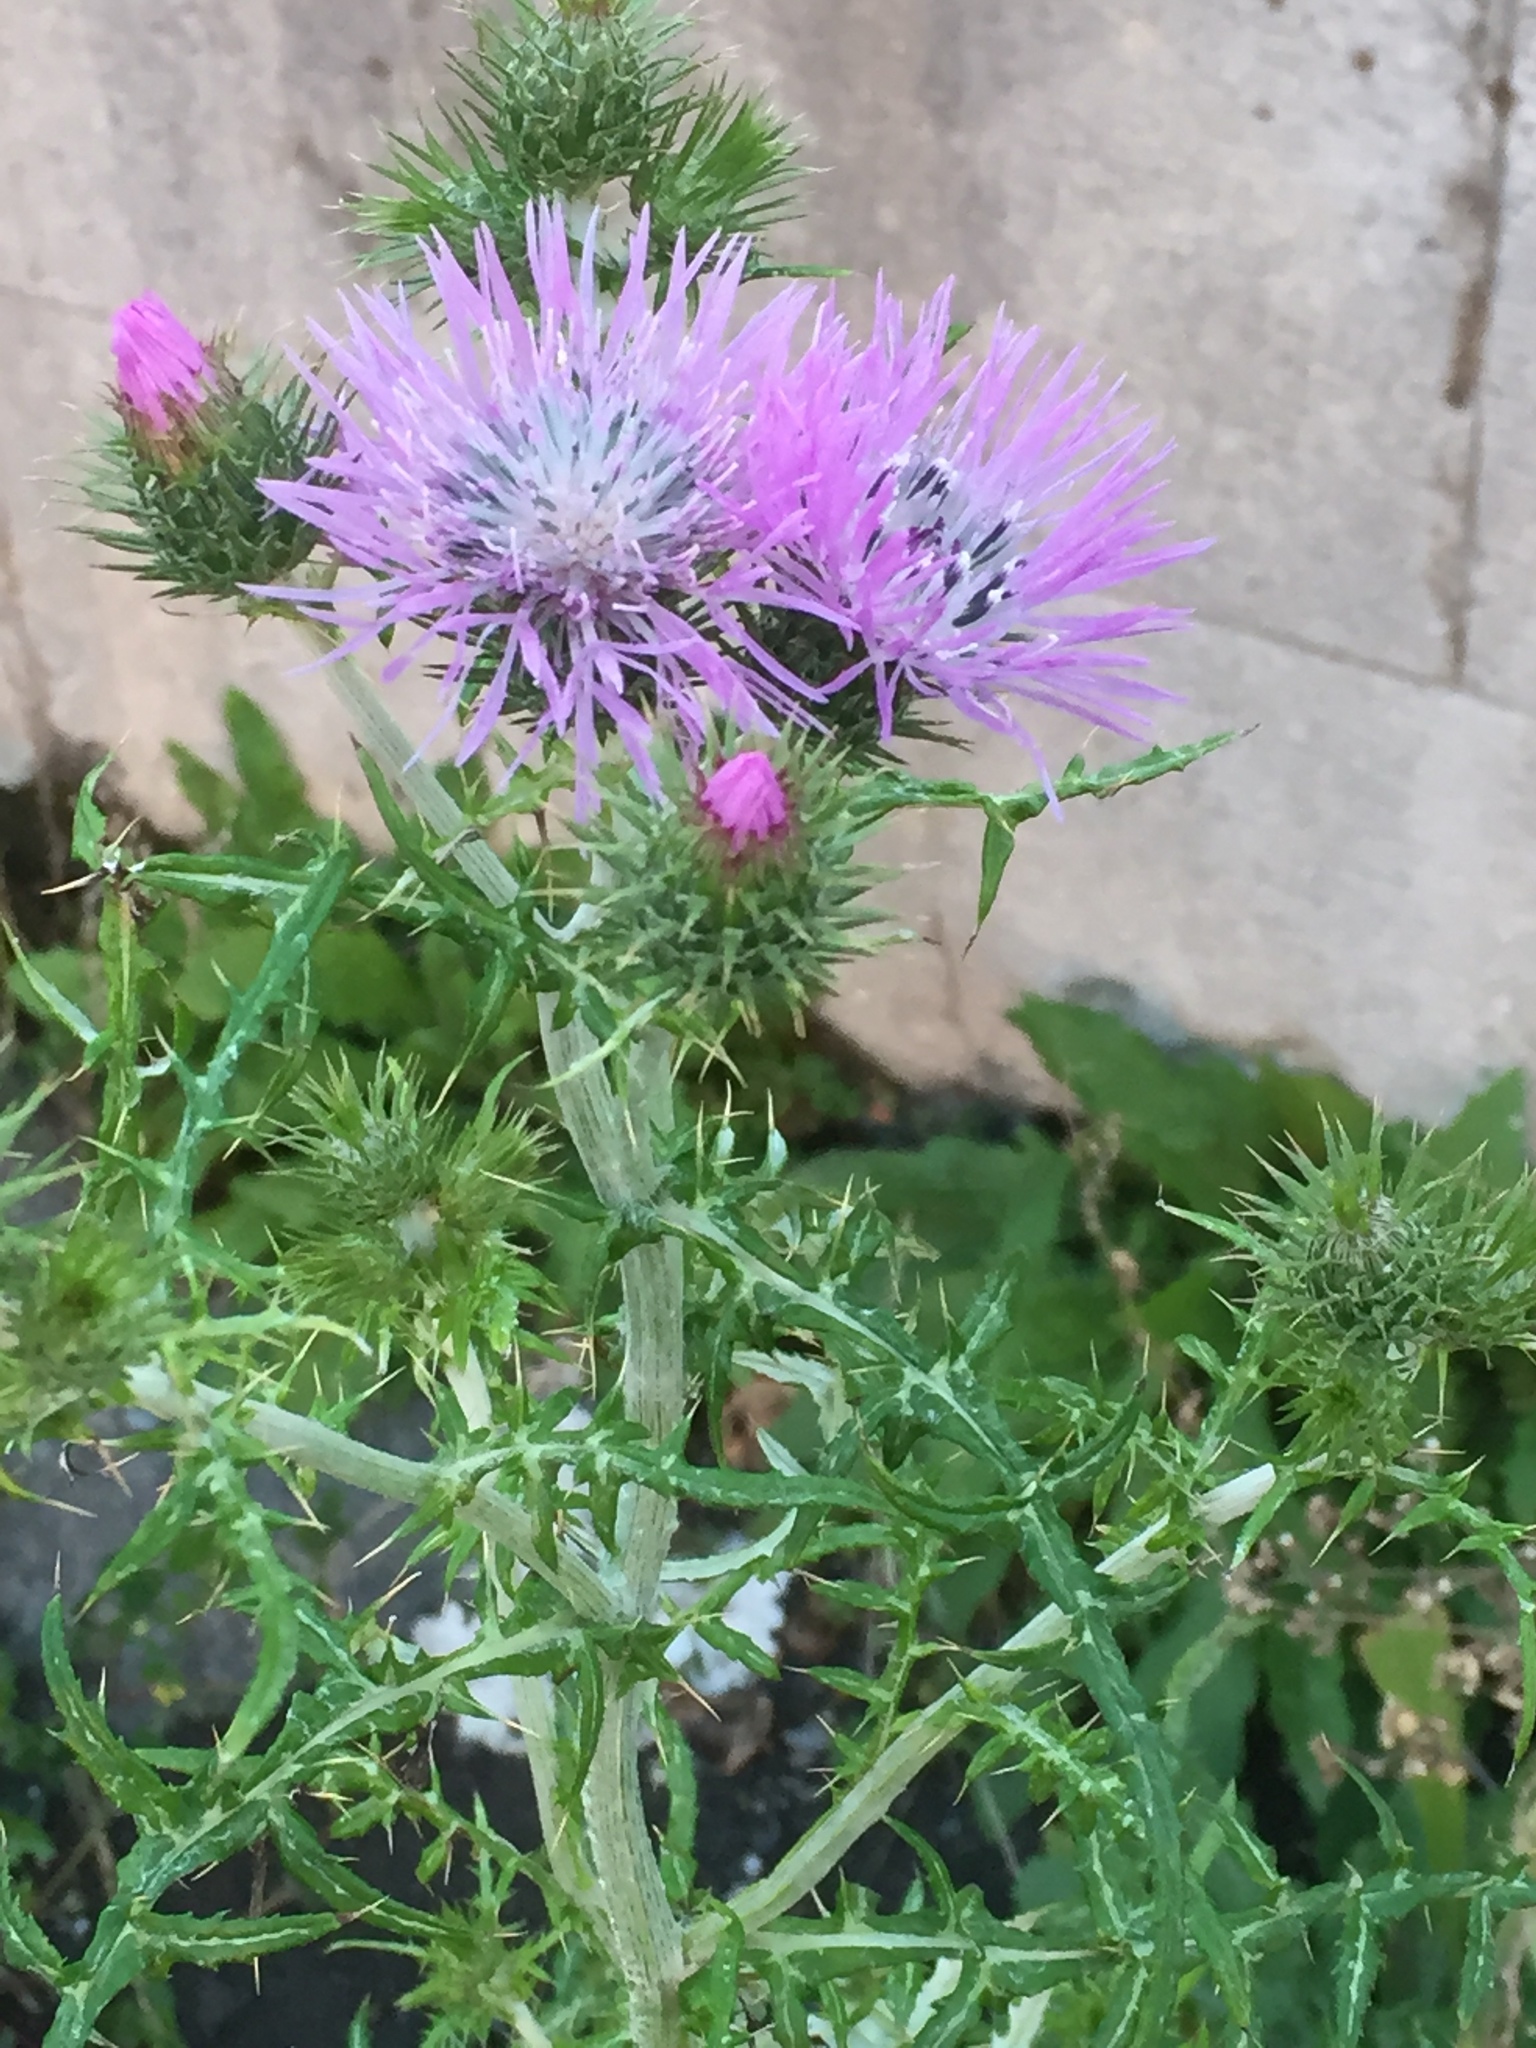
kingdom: Plantae
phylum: Tracheophyta
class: Magnoliopsida
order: Asterales
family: Asteraceae
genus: Galactites
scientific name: Galactites tomentosa
